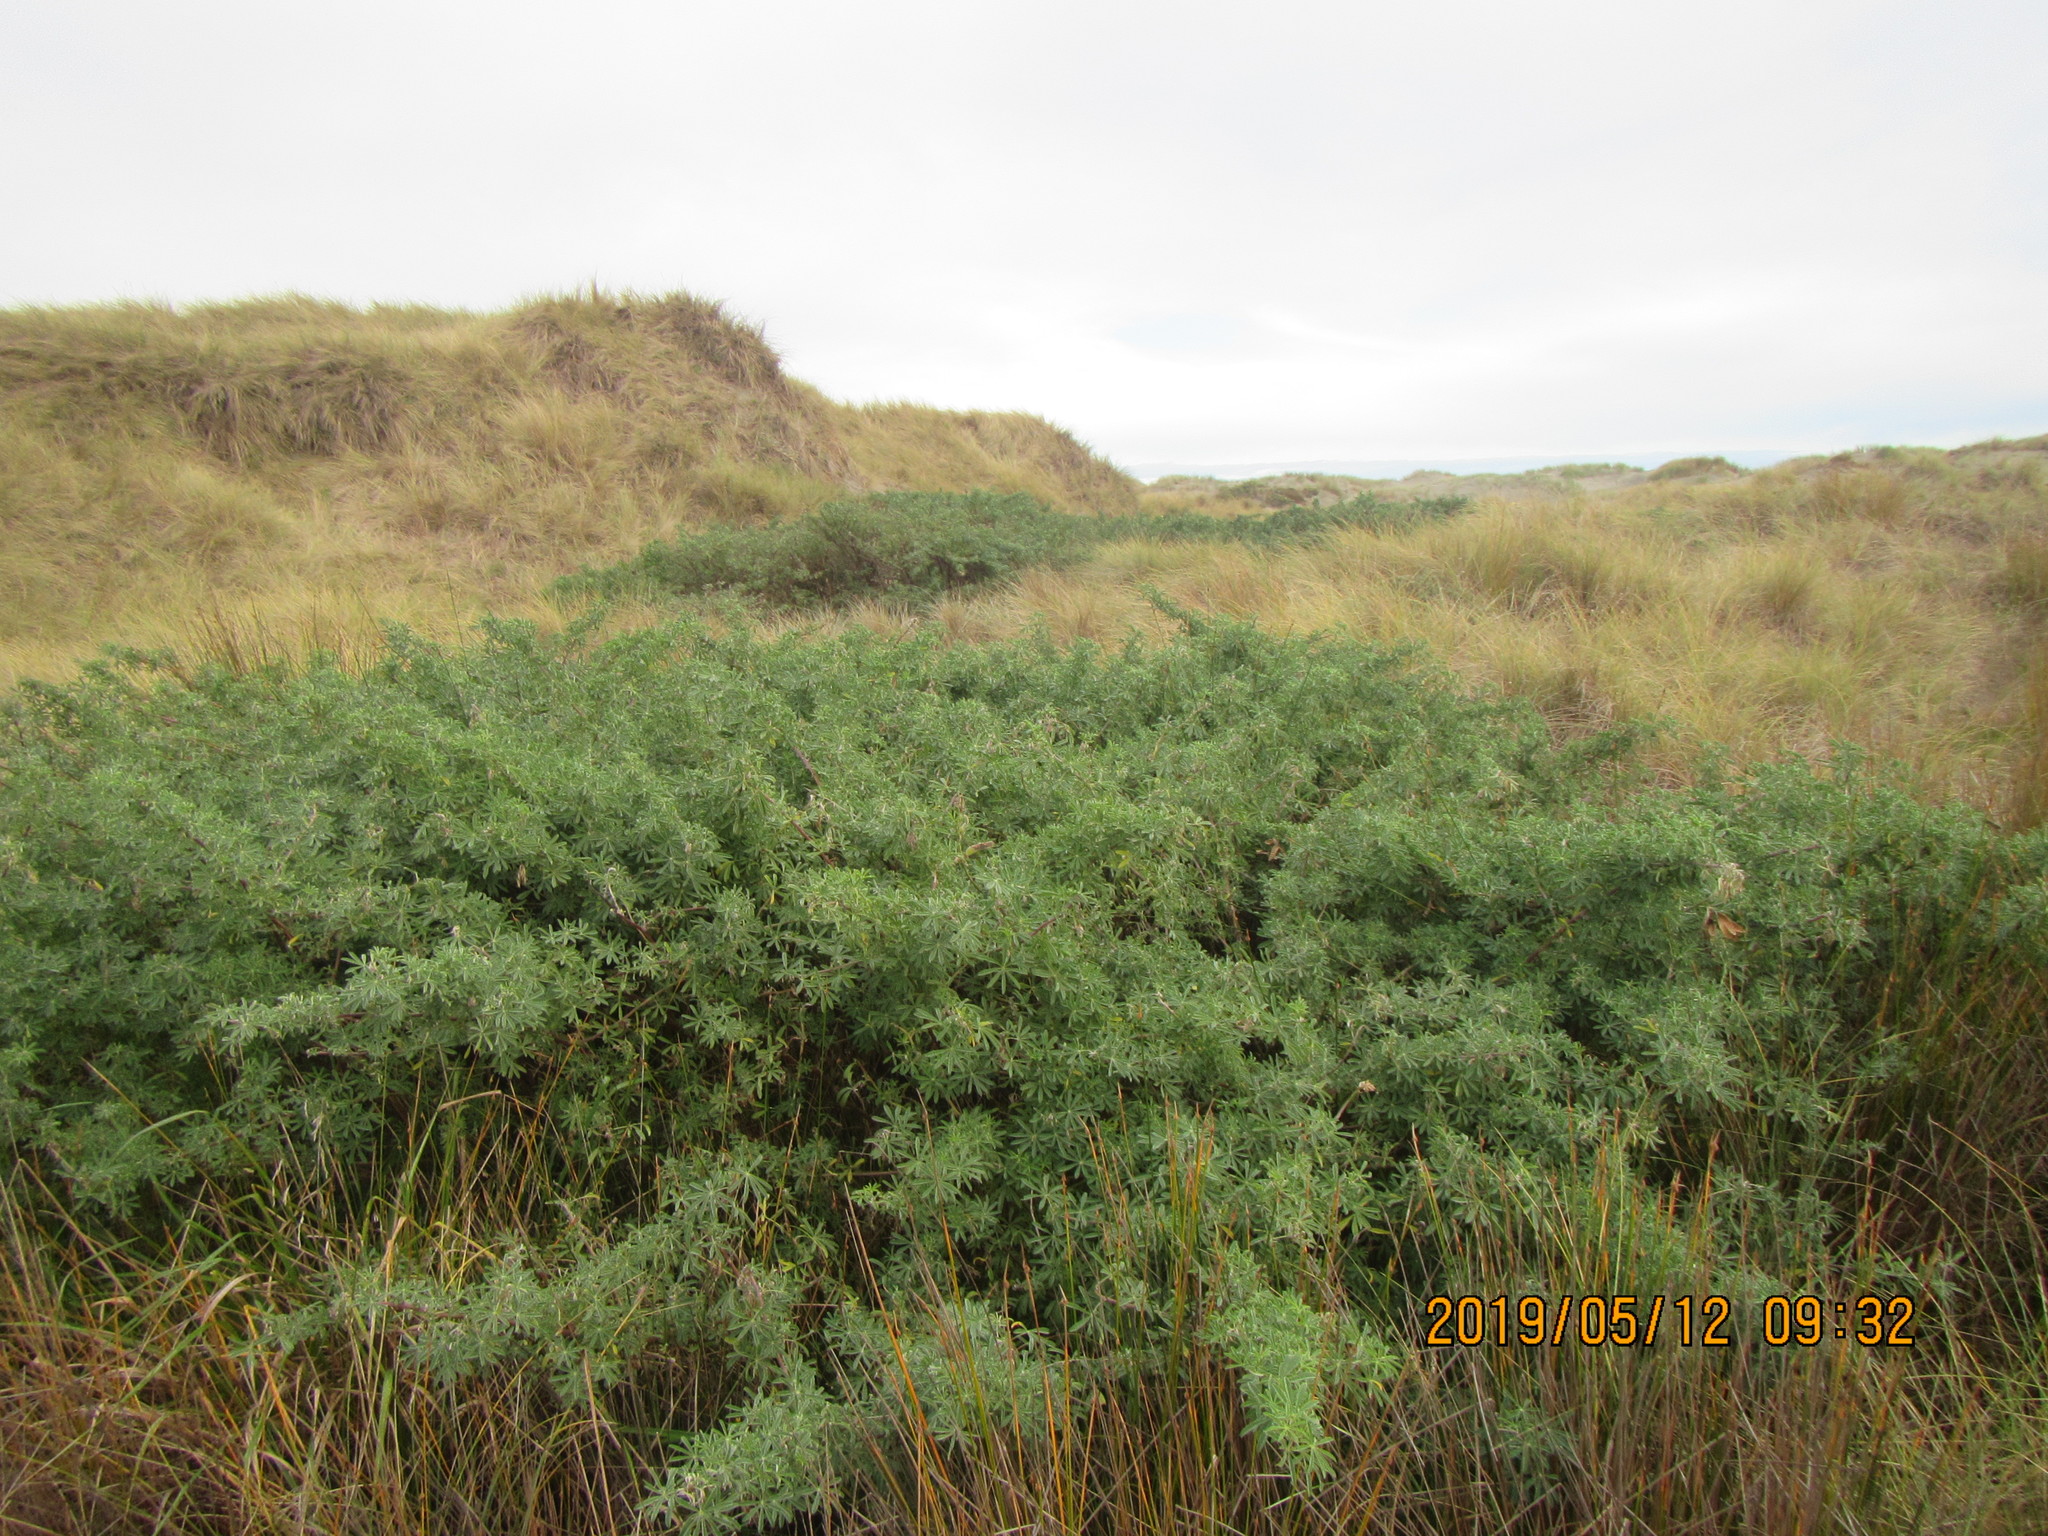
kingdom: Plantae
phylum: Tracheophyta
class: Magnoliopsida
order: Fabales
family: Fabaceae
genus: Lupinus
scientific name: Lupinus arboreus
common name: Yellow bush lupine
